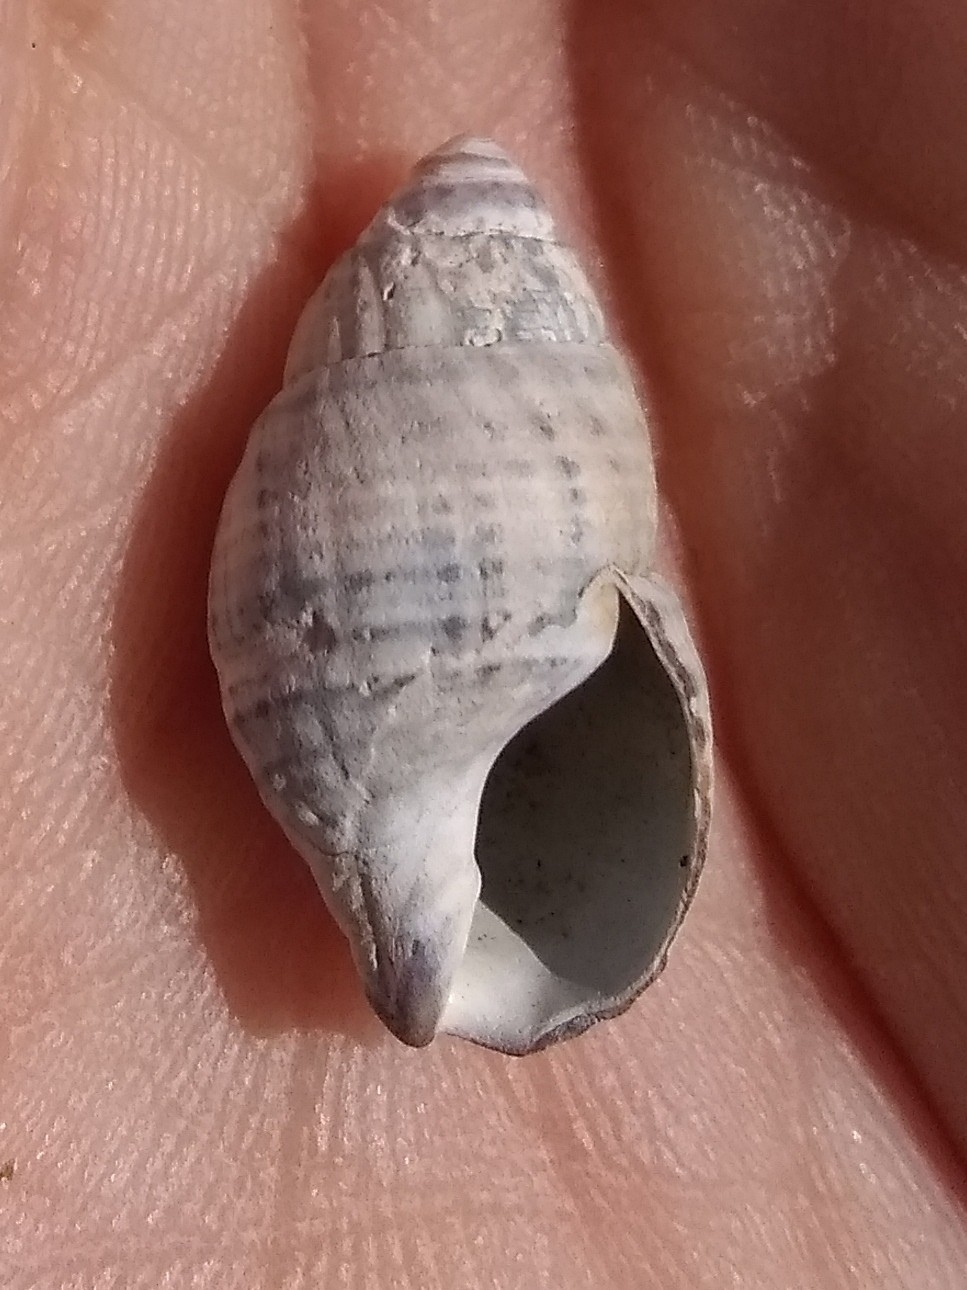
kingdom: Animalia
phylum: Mollusca
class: Gastropoda
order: Neogastropoda
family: Nassariidae
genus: Ilyanassa
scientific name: Ilyanassa obsoleta
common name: Eastern mudsnail
